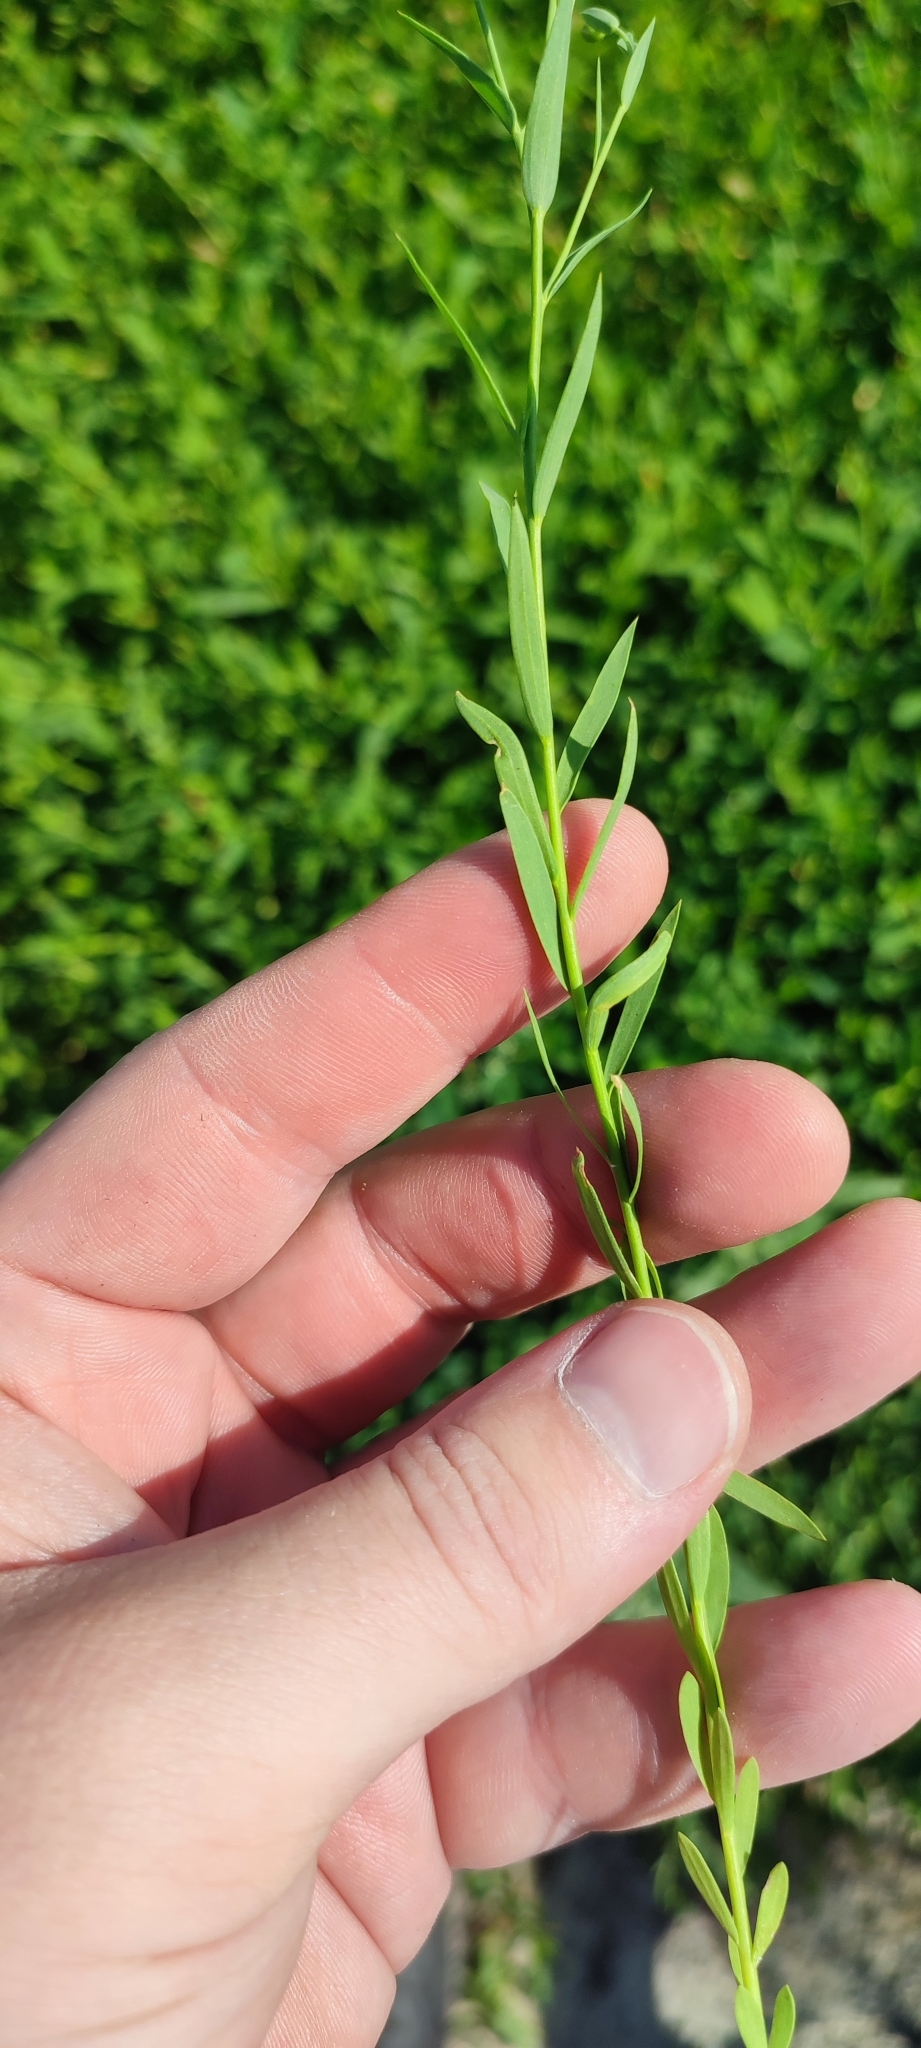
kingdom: Plantae
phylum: Tracheophyta
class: Magnoliopsida
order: Malpighiales
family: Linaceae
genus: Linum
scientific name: Linum usitatissimum
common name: Flax
